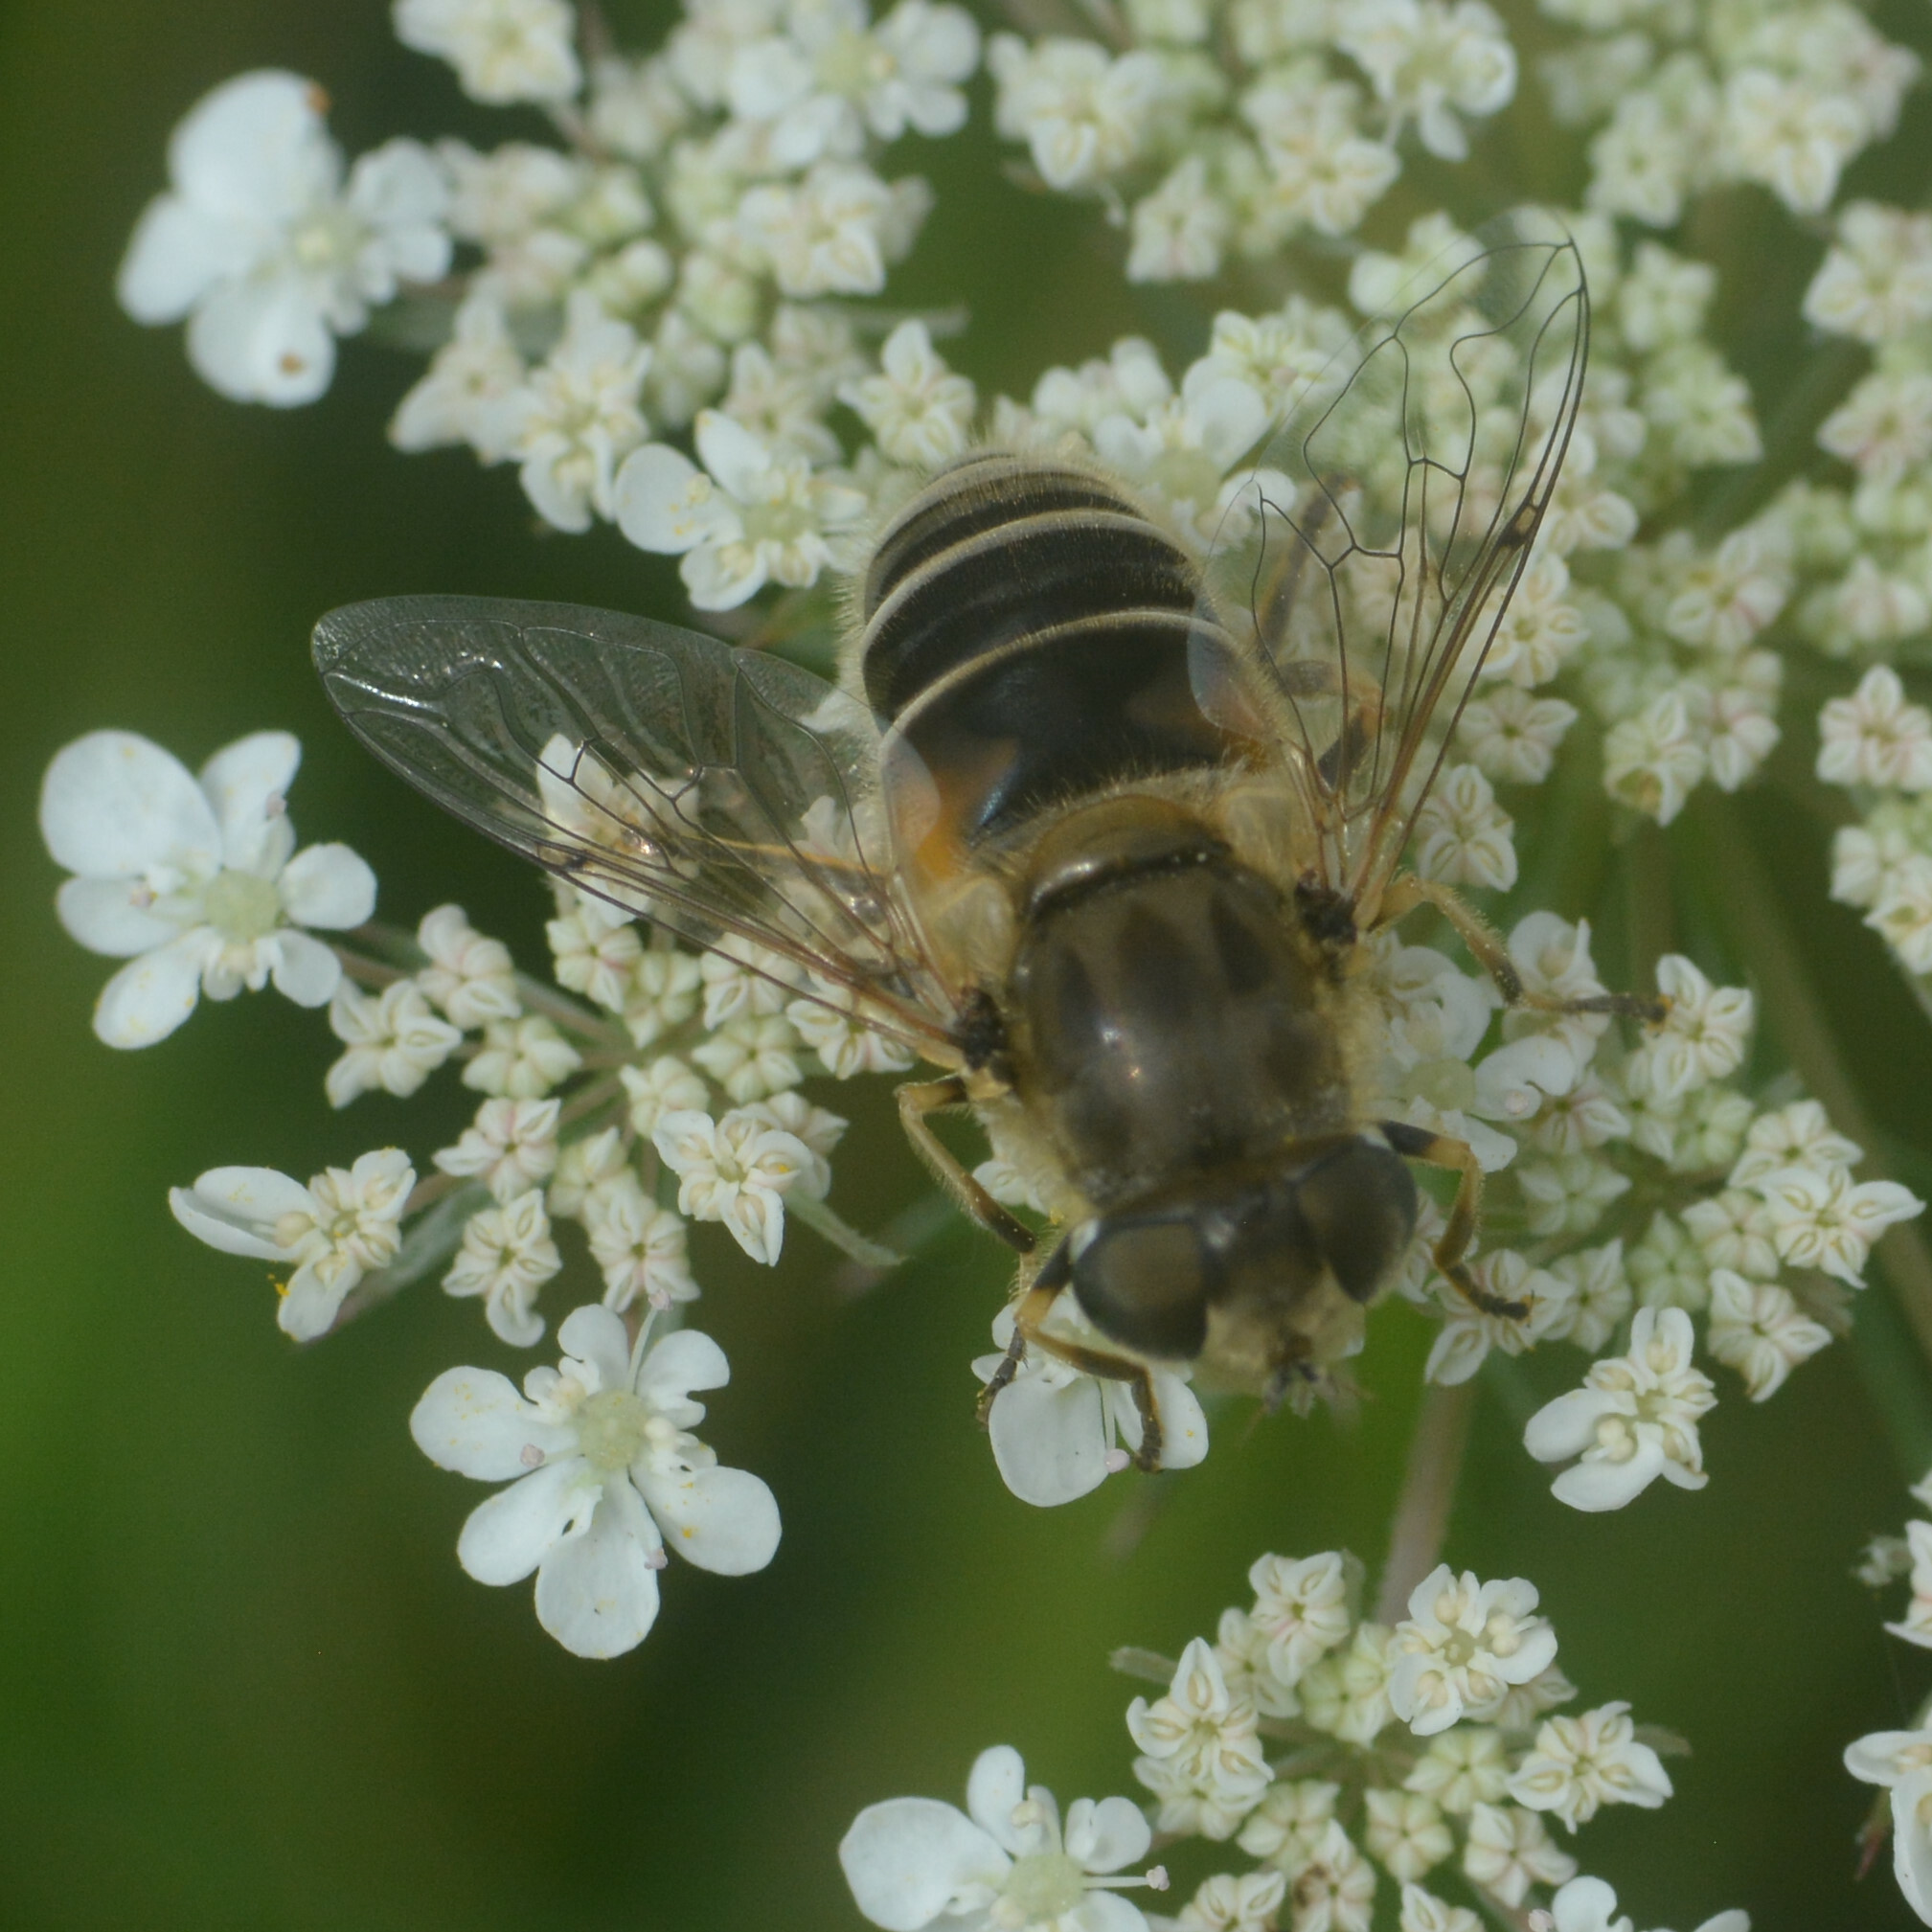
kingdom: Animalia
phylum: Arthropoda
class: Insecta
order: Diptera
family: Syrphidae
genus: Eristalis
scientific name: Eristalis arbustorum
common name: Hover fly
